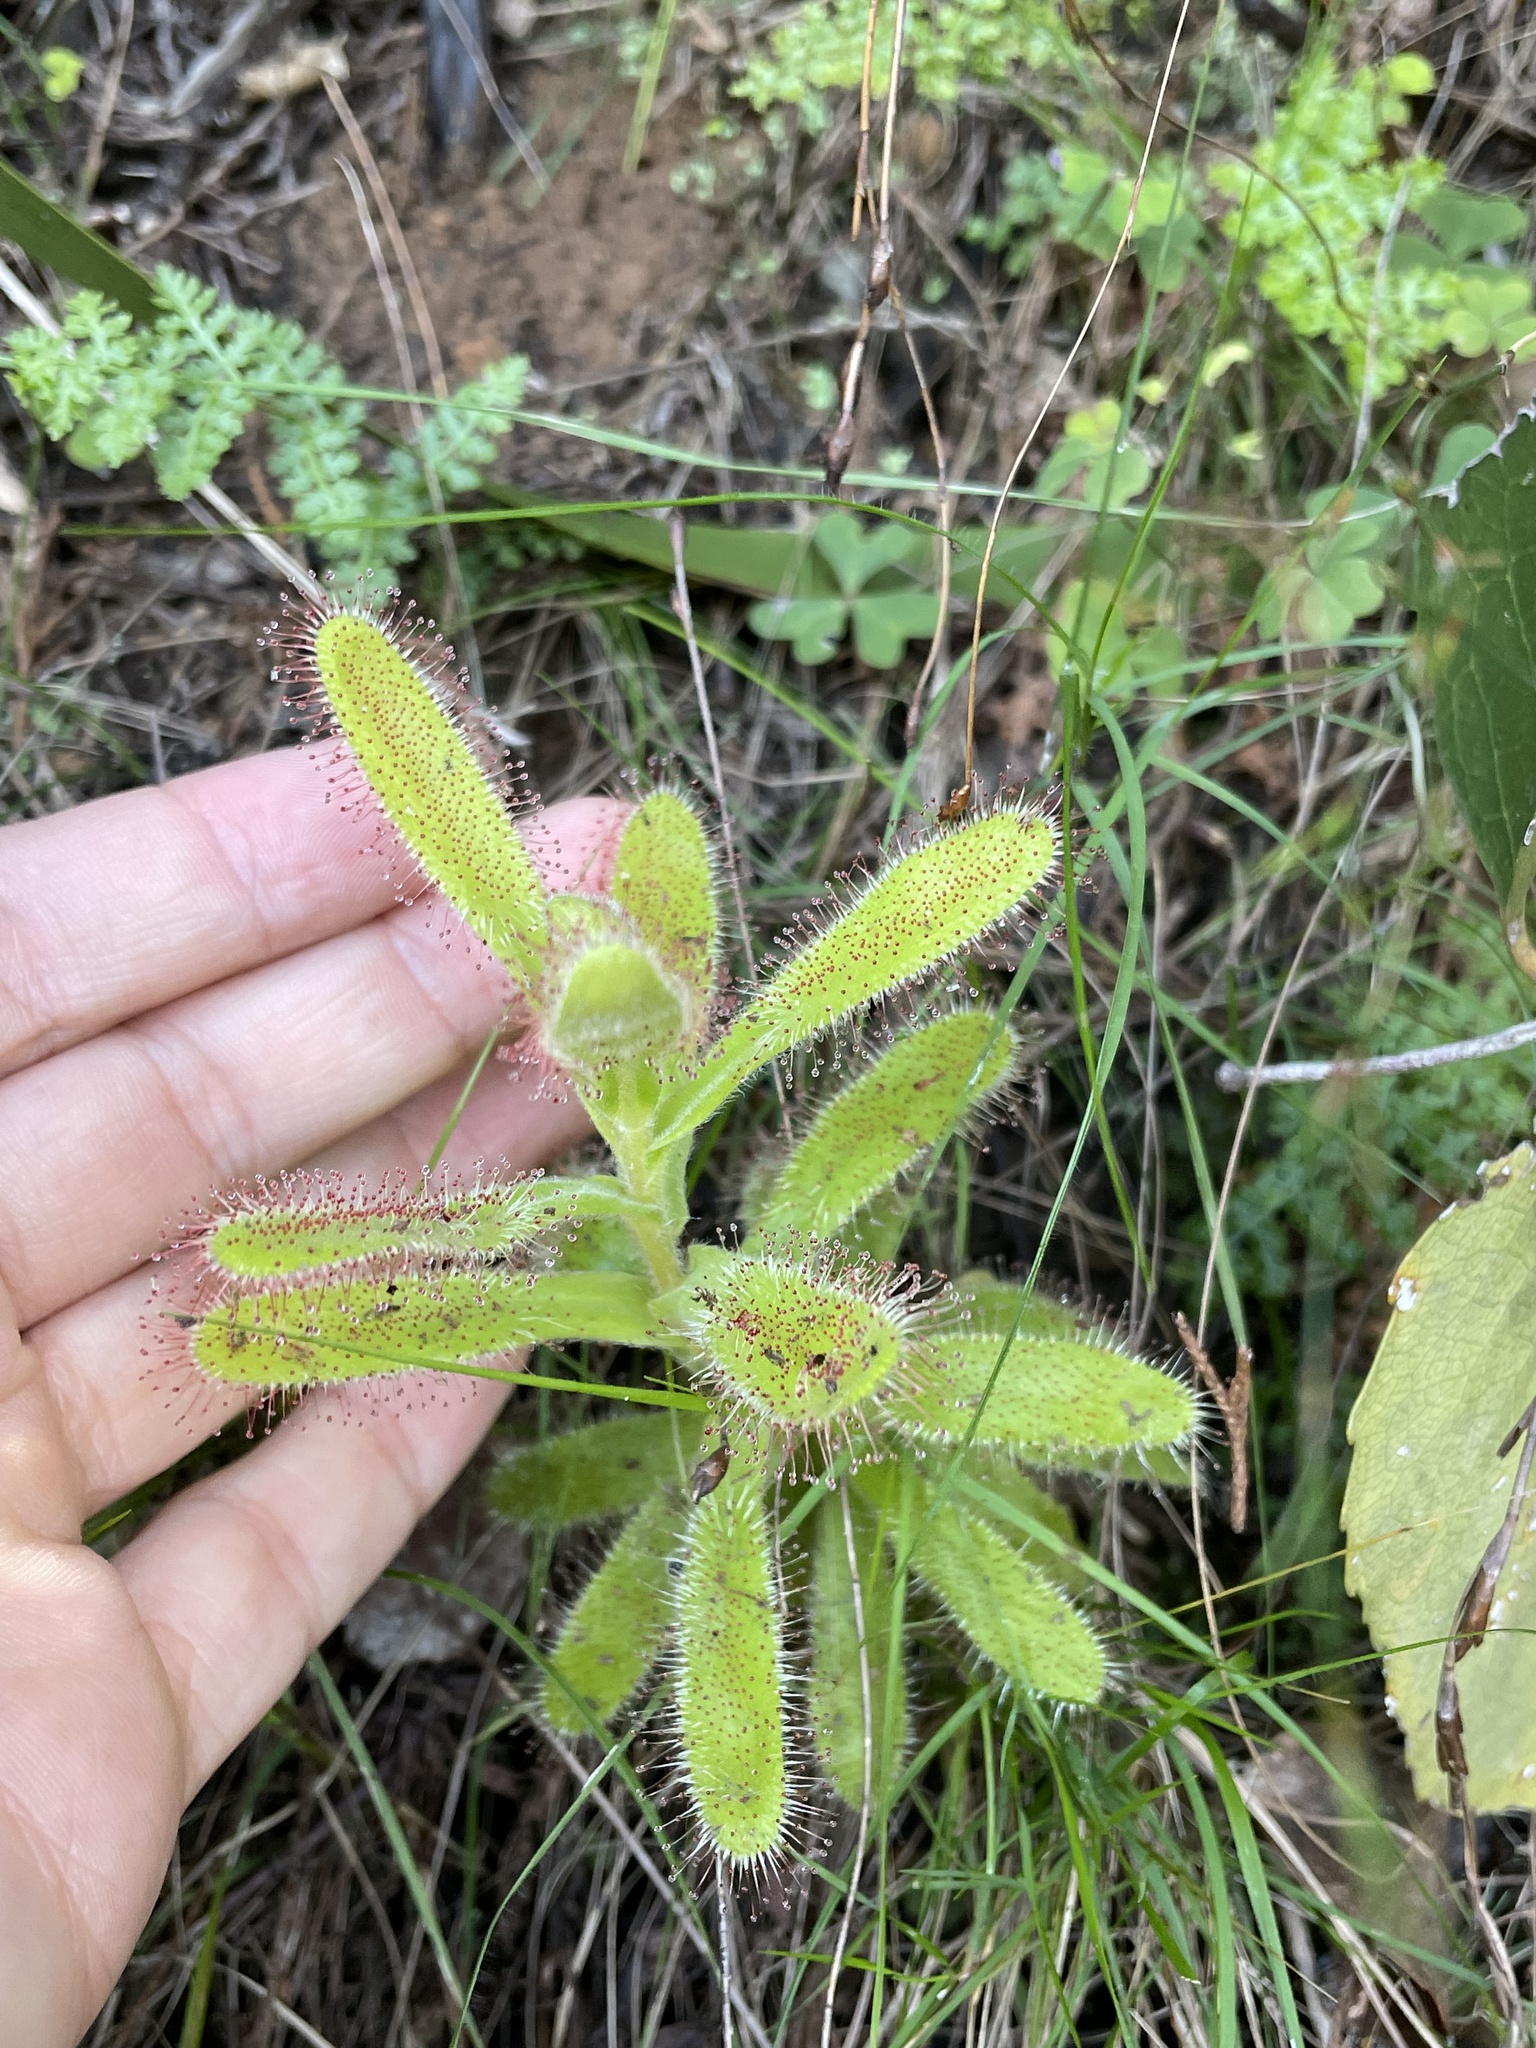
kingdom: Plantae
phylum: Tracheophyta
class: Magnoliopsida
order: Caryophyllales
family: Droseraceae
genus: Drosera
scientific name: Drosera hilaris
